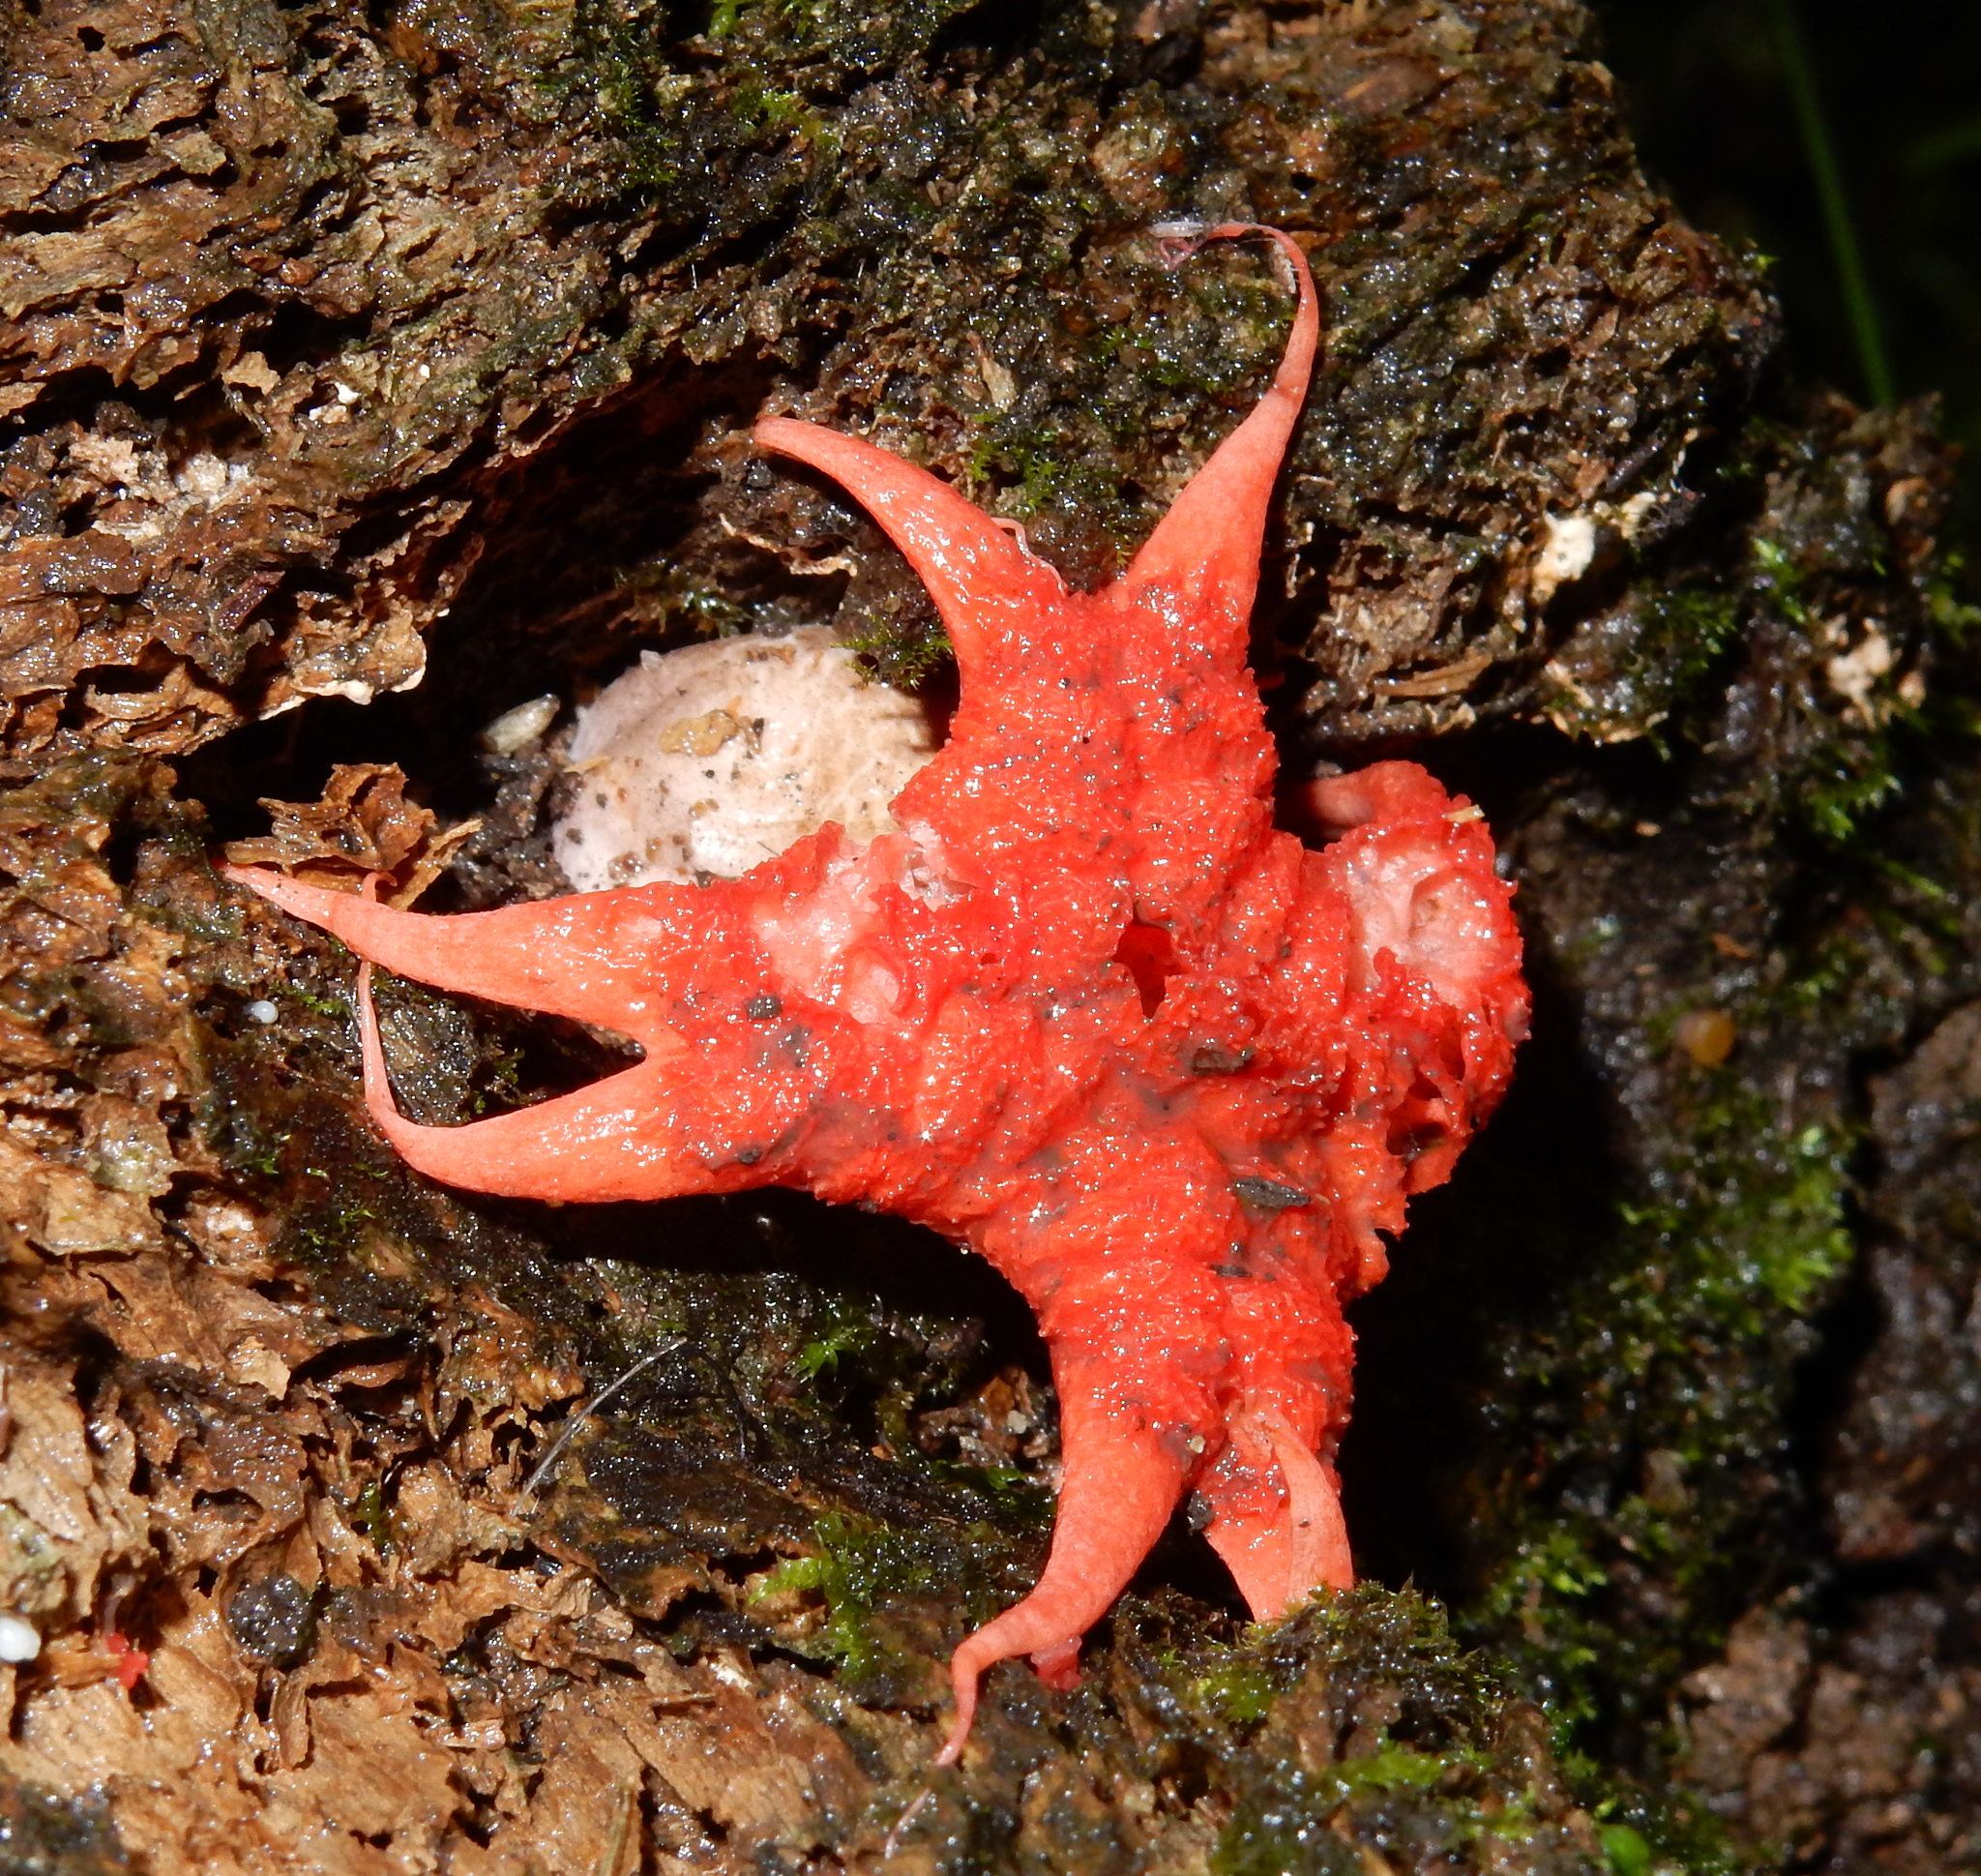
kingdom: Fungi
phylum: Basidiomycota
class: Agaricomycetes
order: Phallales
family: Phallaceae
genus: Aseroe
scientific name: Aseroe rubra
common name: Starfish fungus
